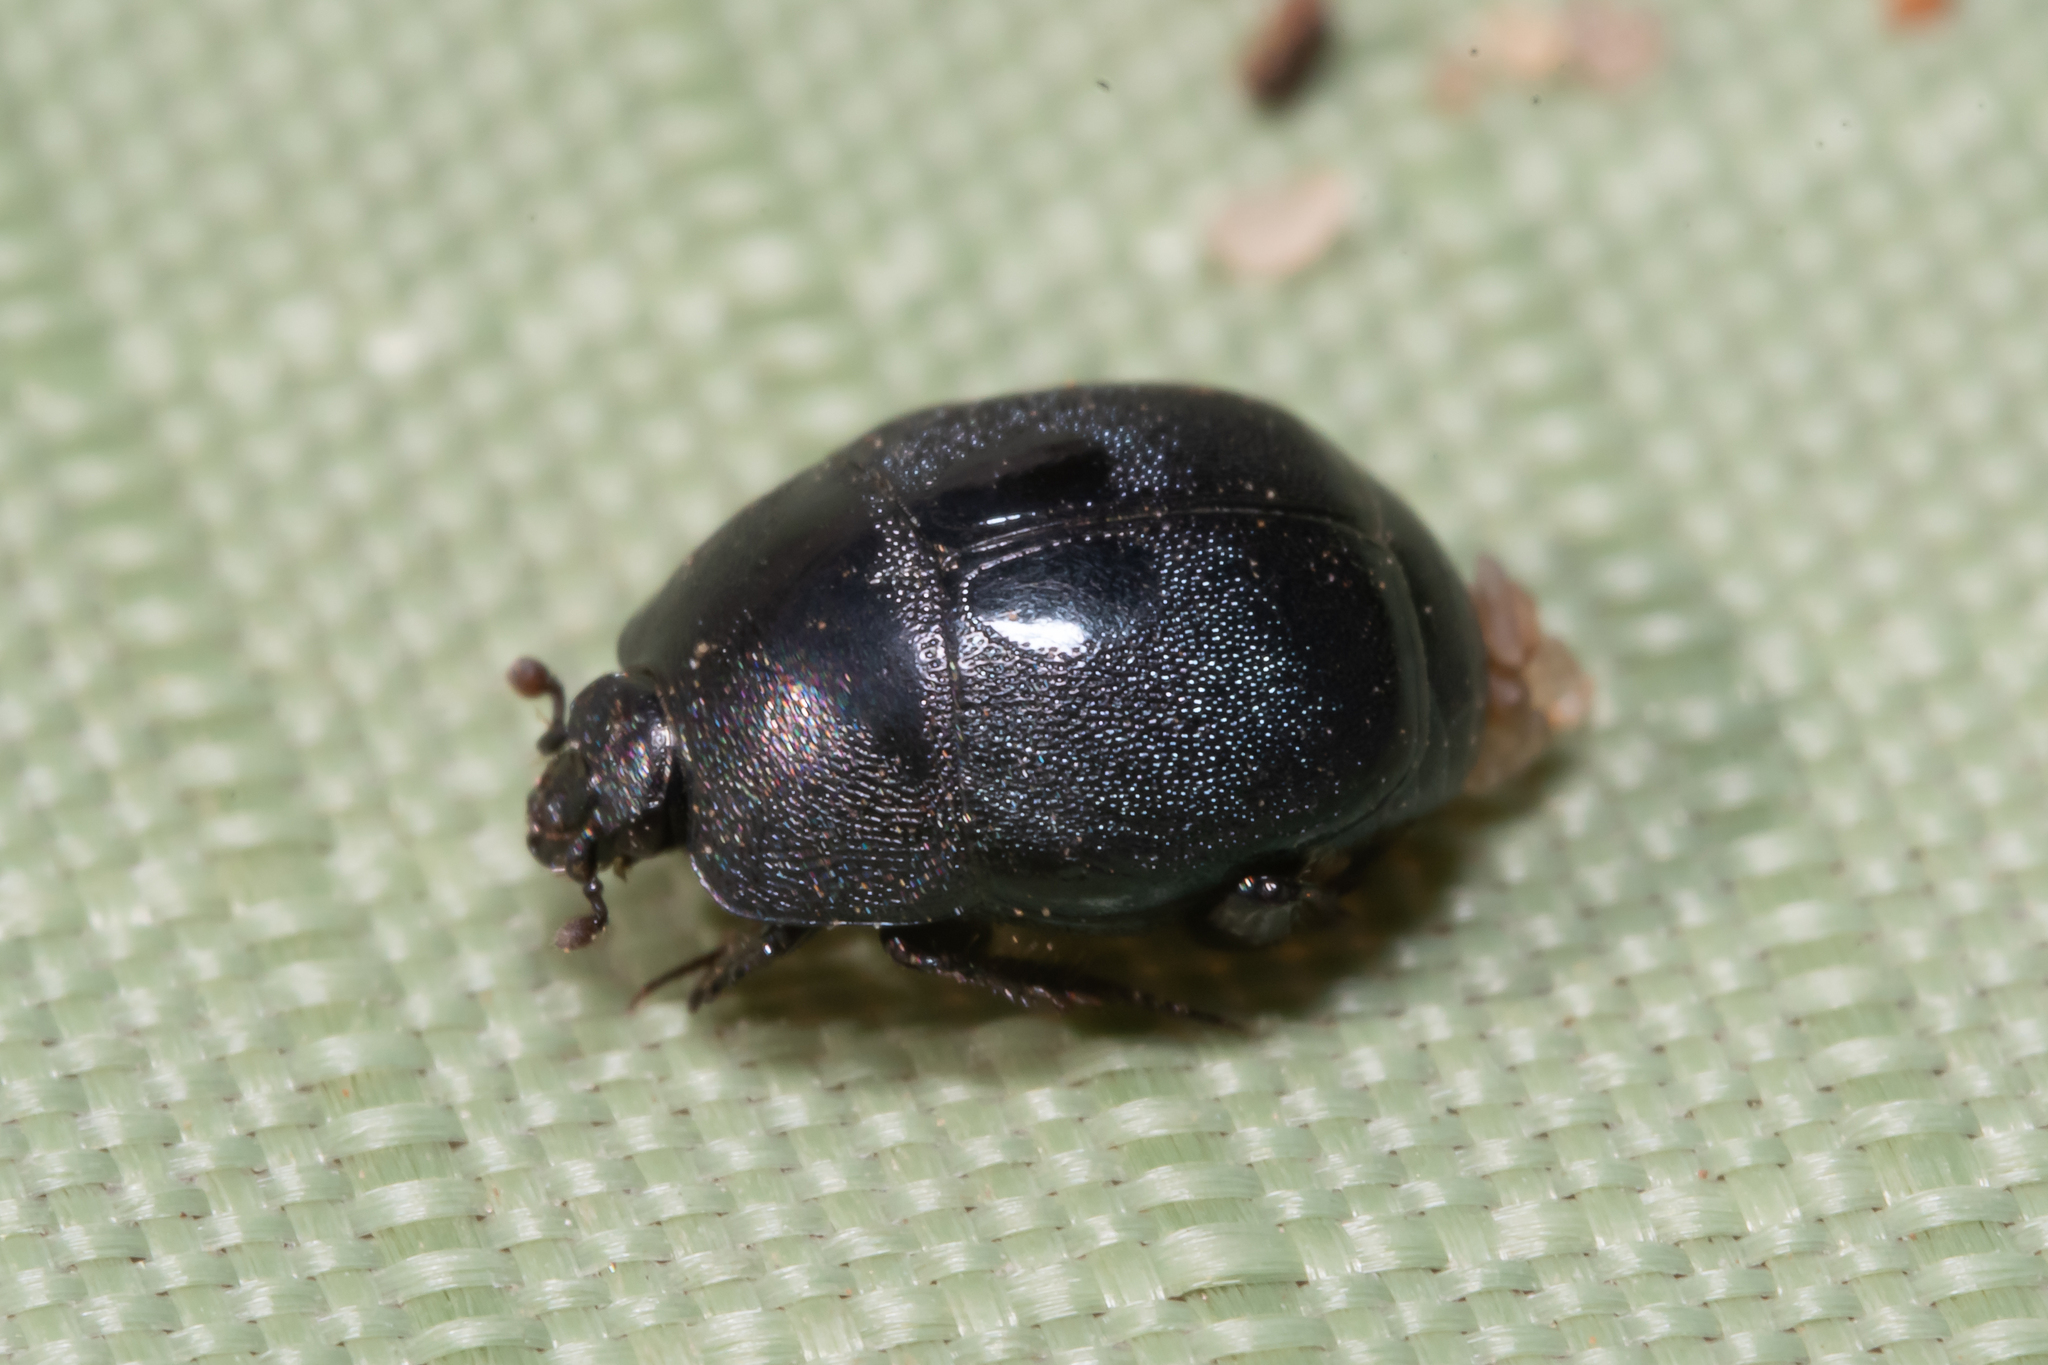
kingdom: Animalia
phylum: Arthropoda
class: Insecta
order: Coleoptera
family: Histeridae
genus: Hypocaccus
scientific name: Hypocaccus rugiceps
